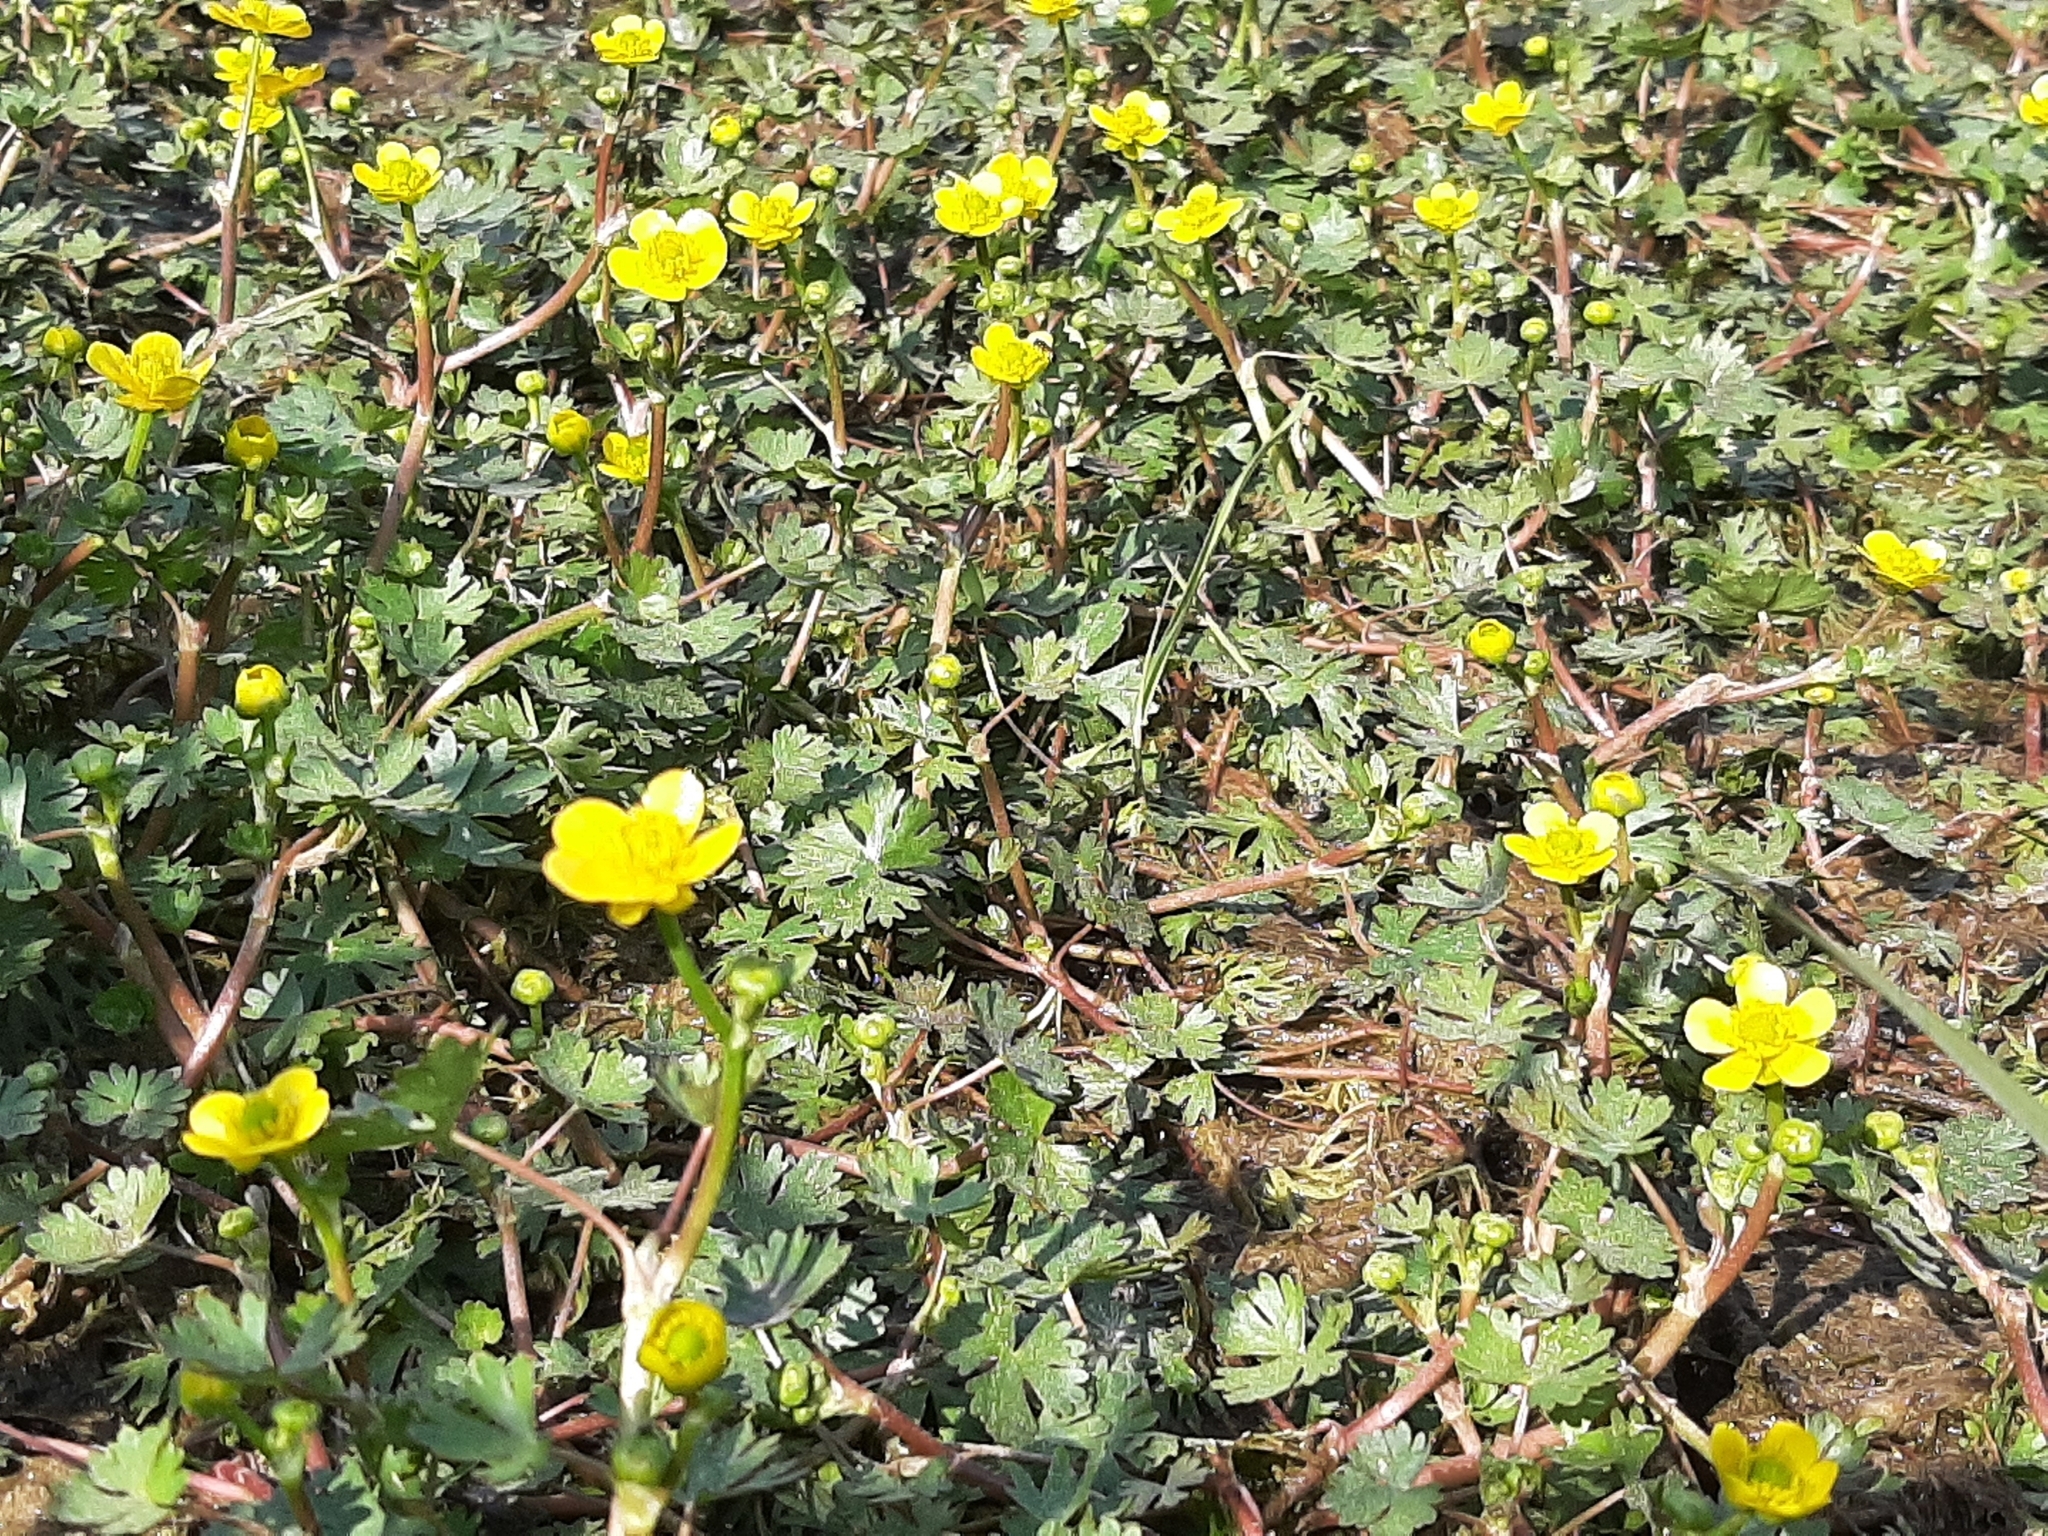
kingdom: Plantae
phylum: Tracheophyta
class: Magnoliopsida
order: Ranunculales
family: Ranunculaceae
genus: Ranunculus
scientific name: Ranunculus gmelinii
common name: Gmelin's buttercup
